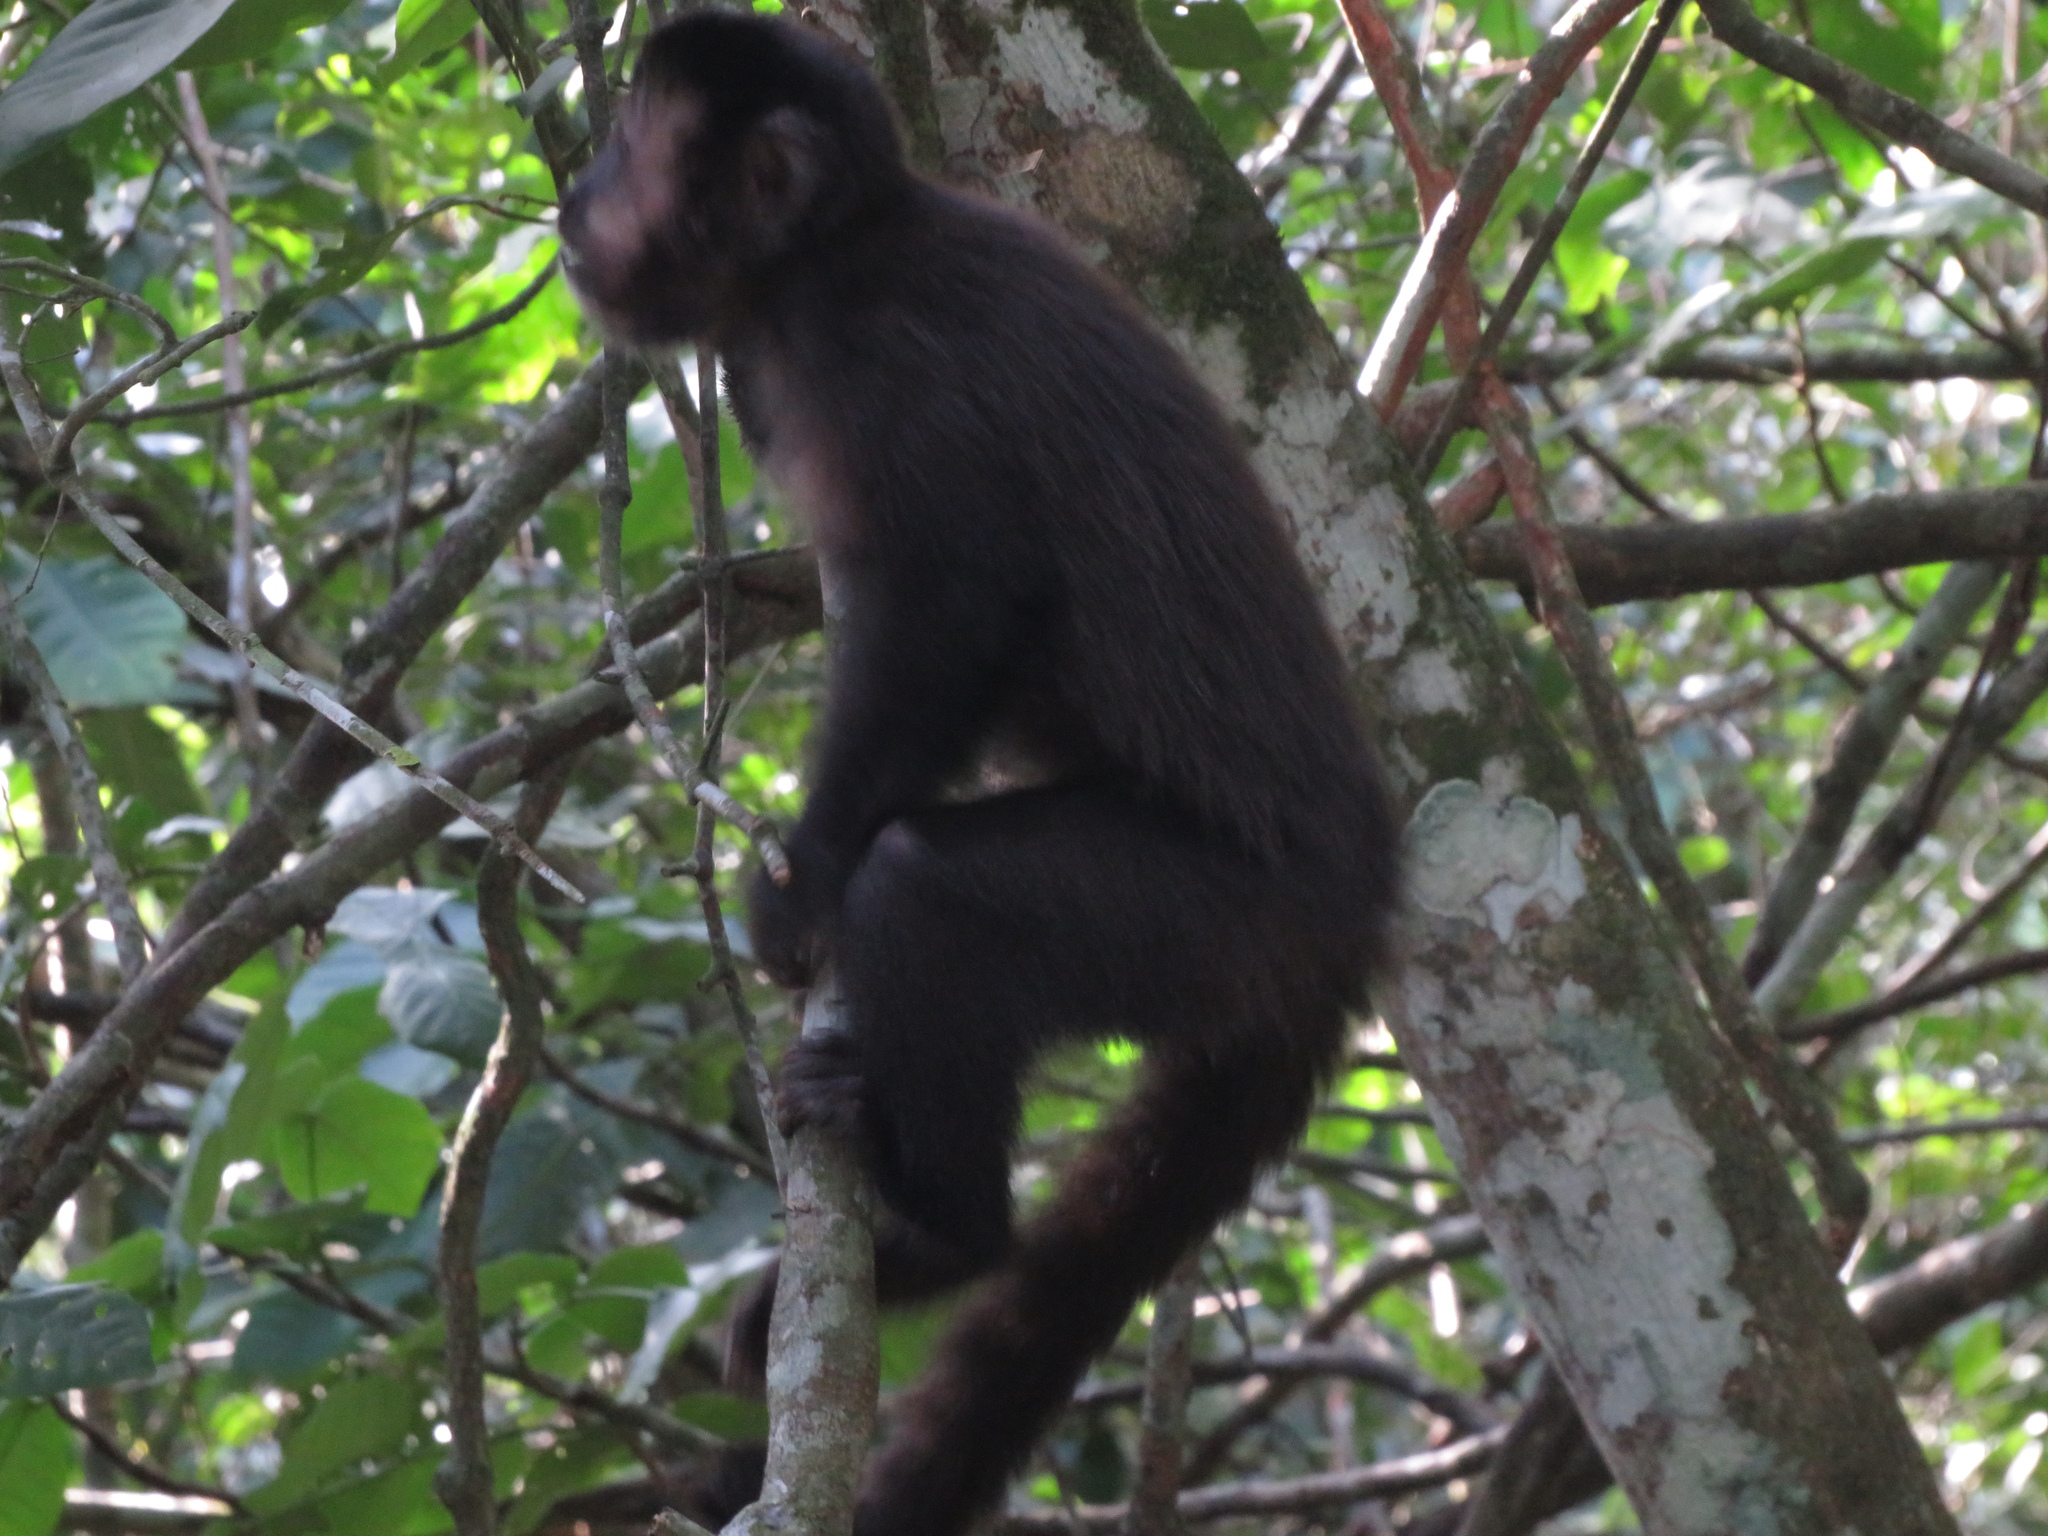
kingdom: Animalia
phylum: Chordata
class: Mammalia
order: Primates
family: Cebidae
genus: Sapajus
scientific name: Sapajus nigritus
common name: Black capuchin
